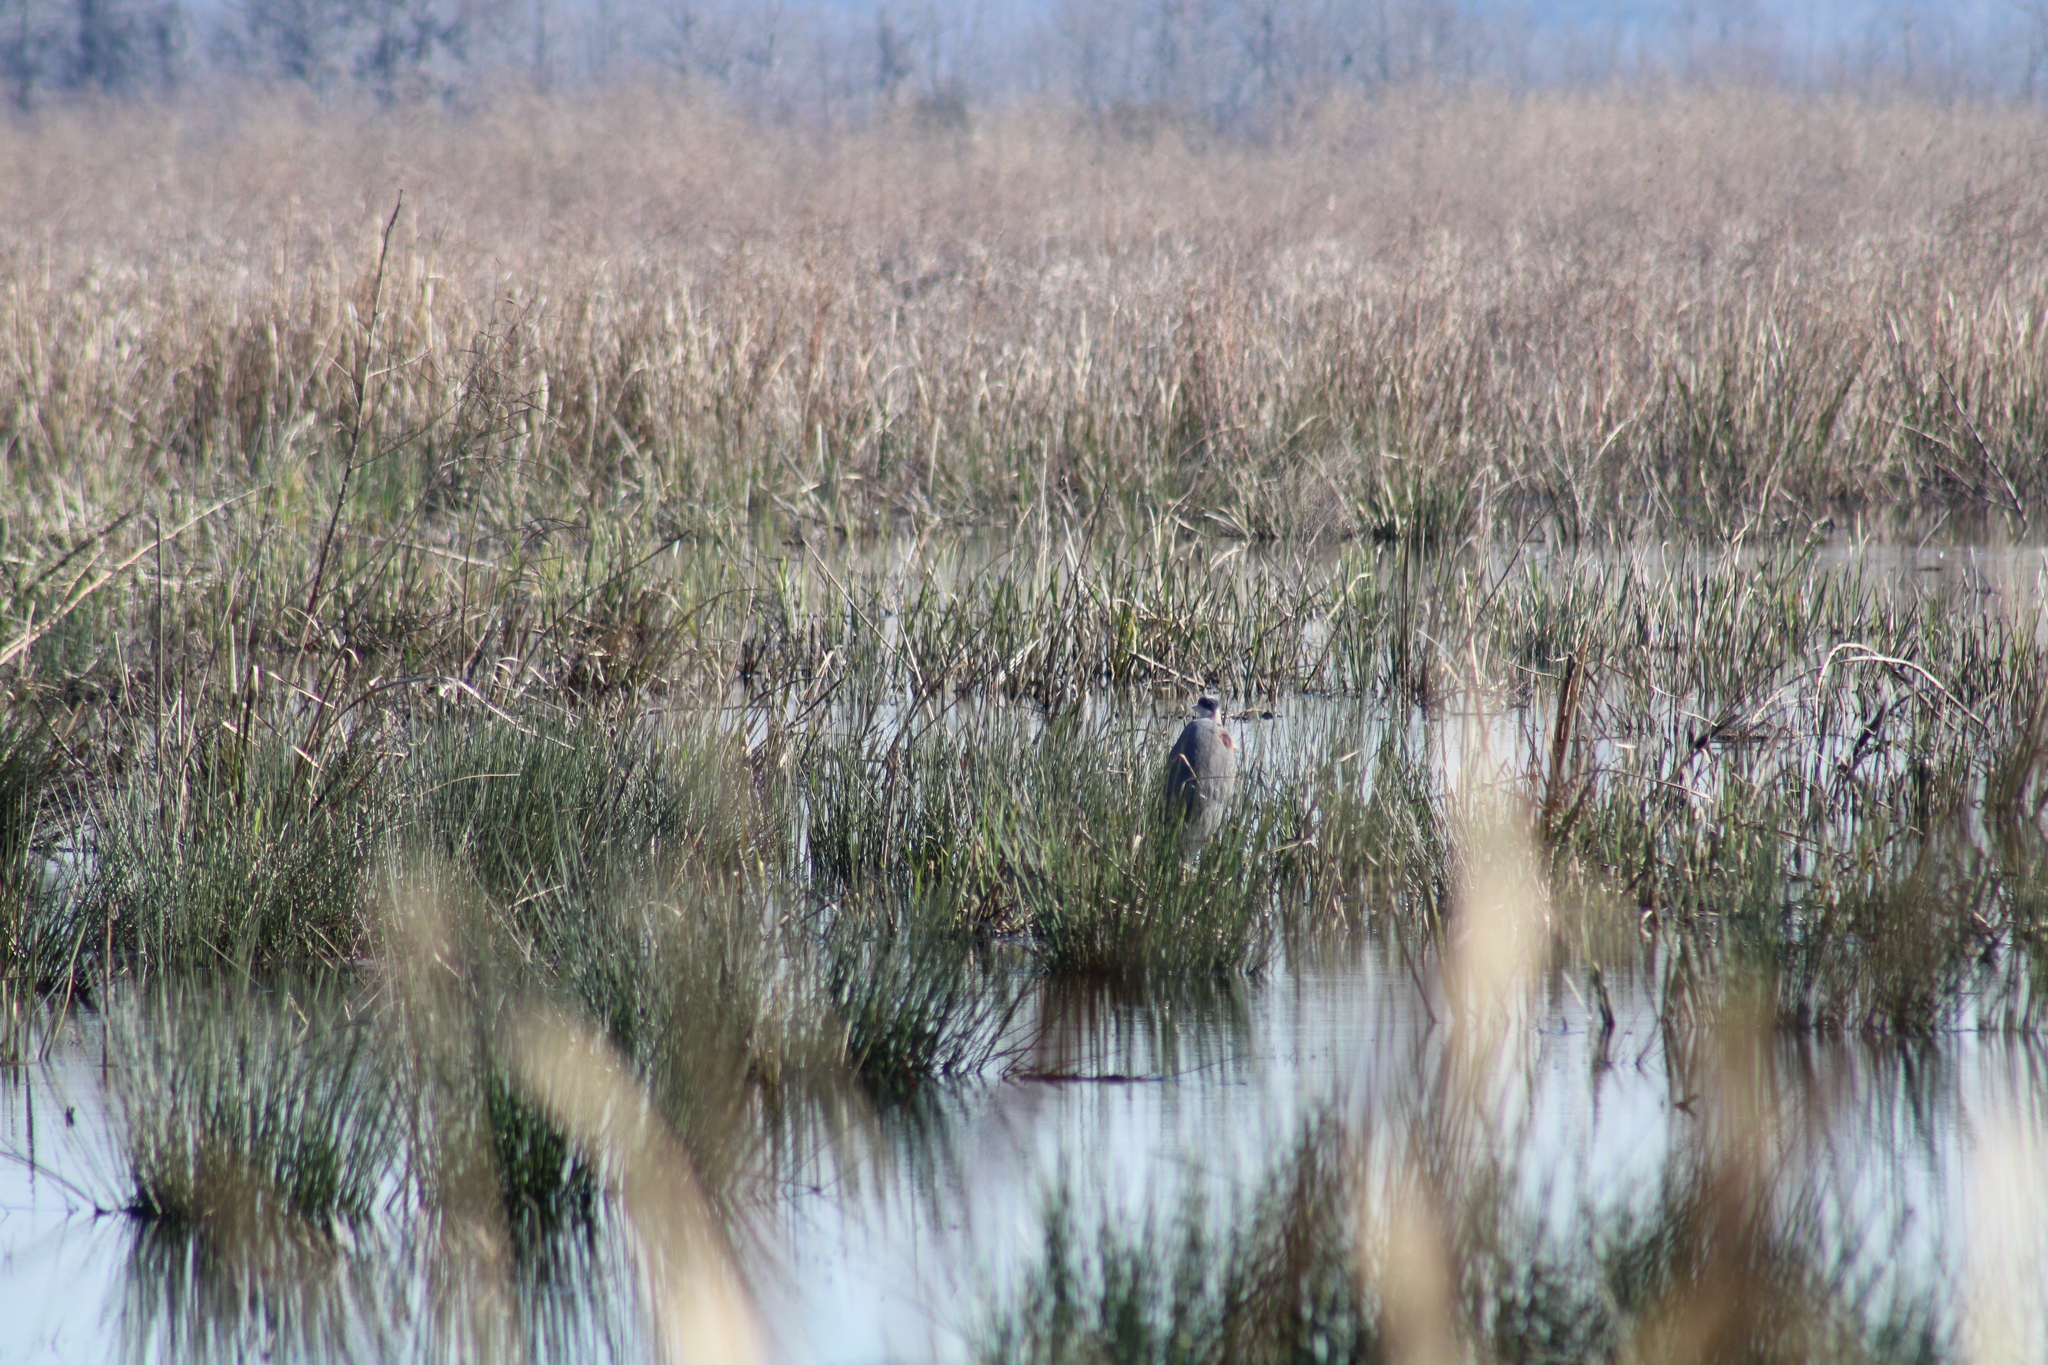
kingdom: Animalia
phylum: Chordata
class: Aves
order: Pelecaniformes
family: Ardeidae
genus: Ardea
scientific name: Ardea herodias
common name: Great blue heron
